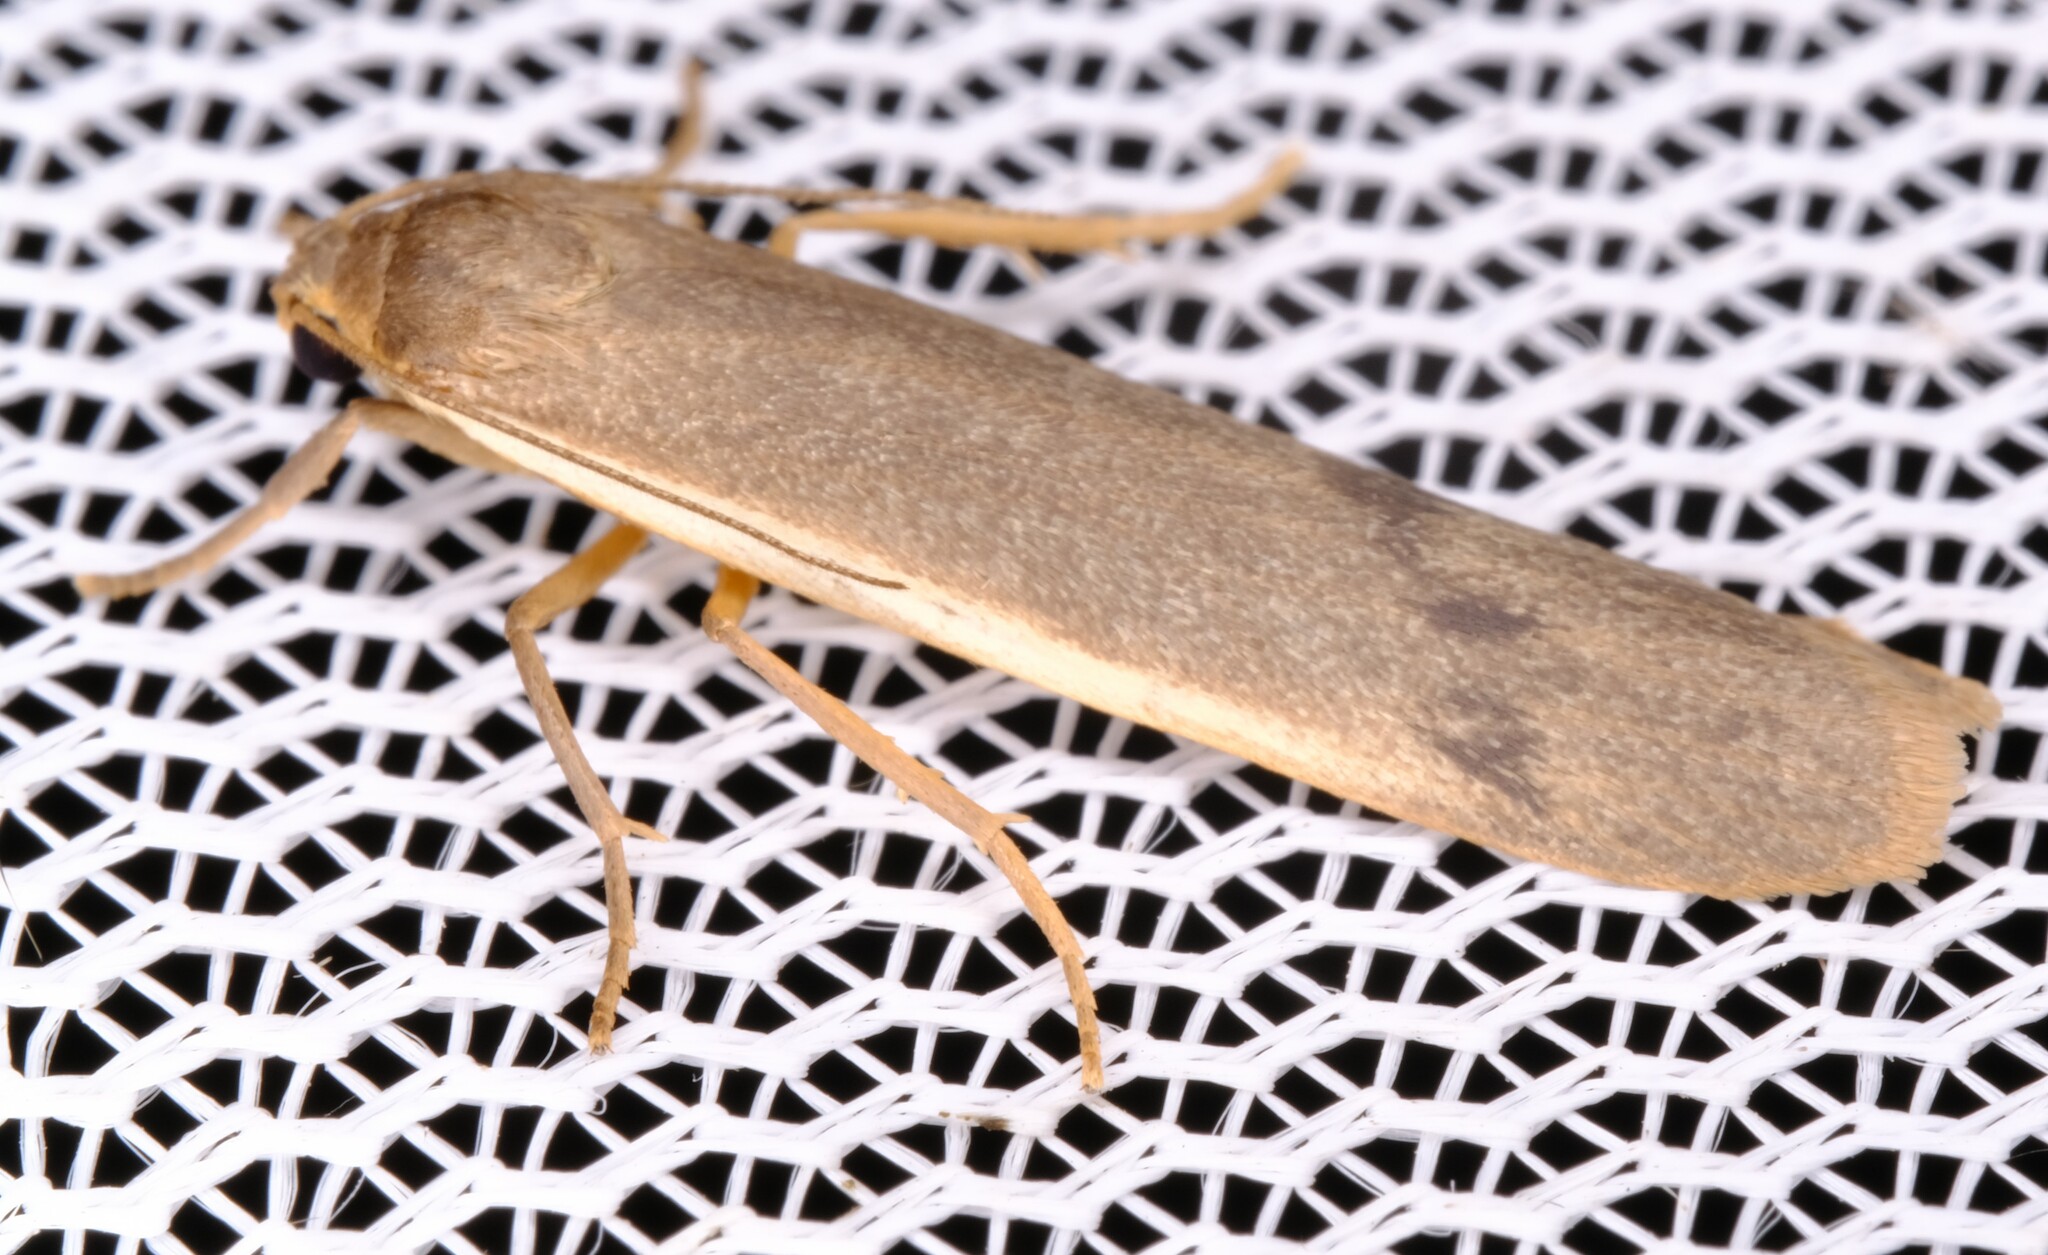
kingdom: Animalia
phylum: Arthropoda
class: Insecta
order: Lepidoptera
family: Erebidae
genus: Scoliacma
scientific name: Scoliacma nana
